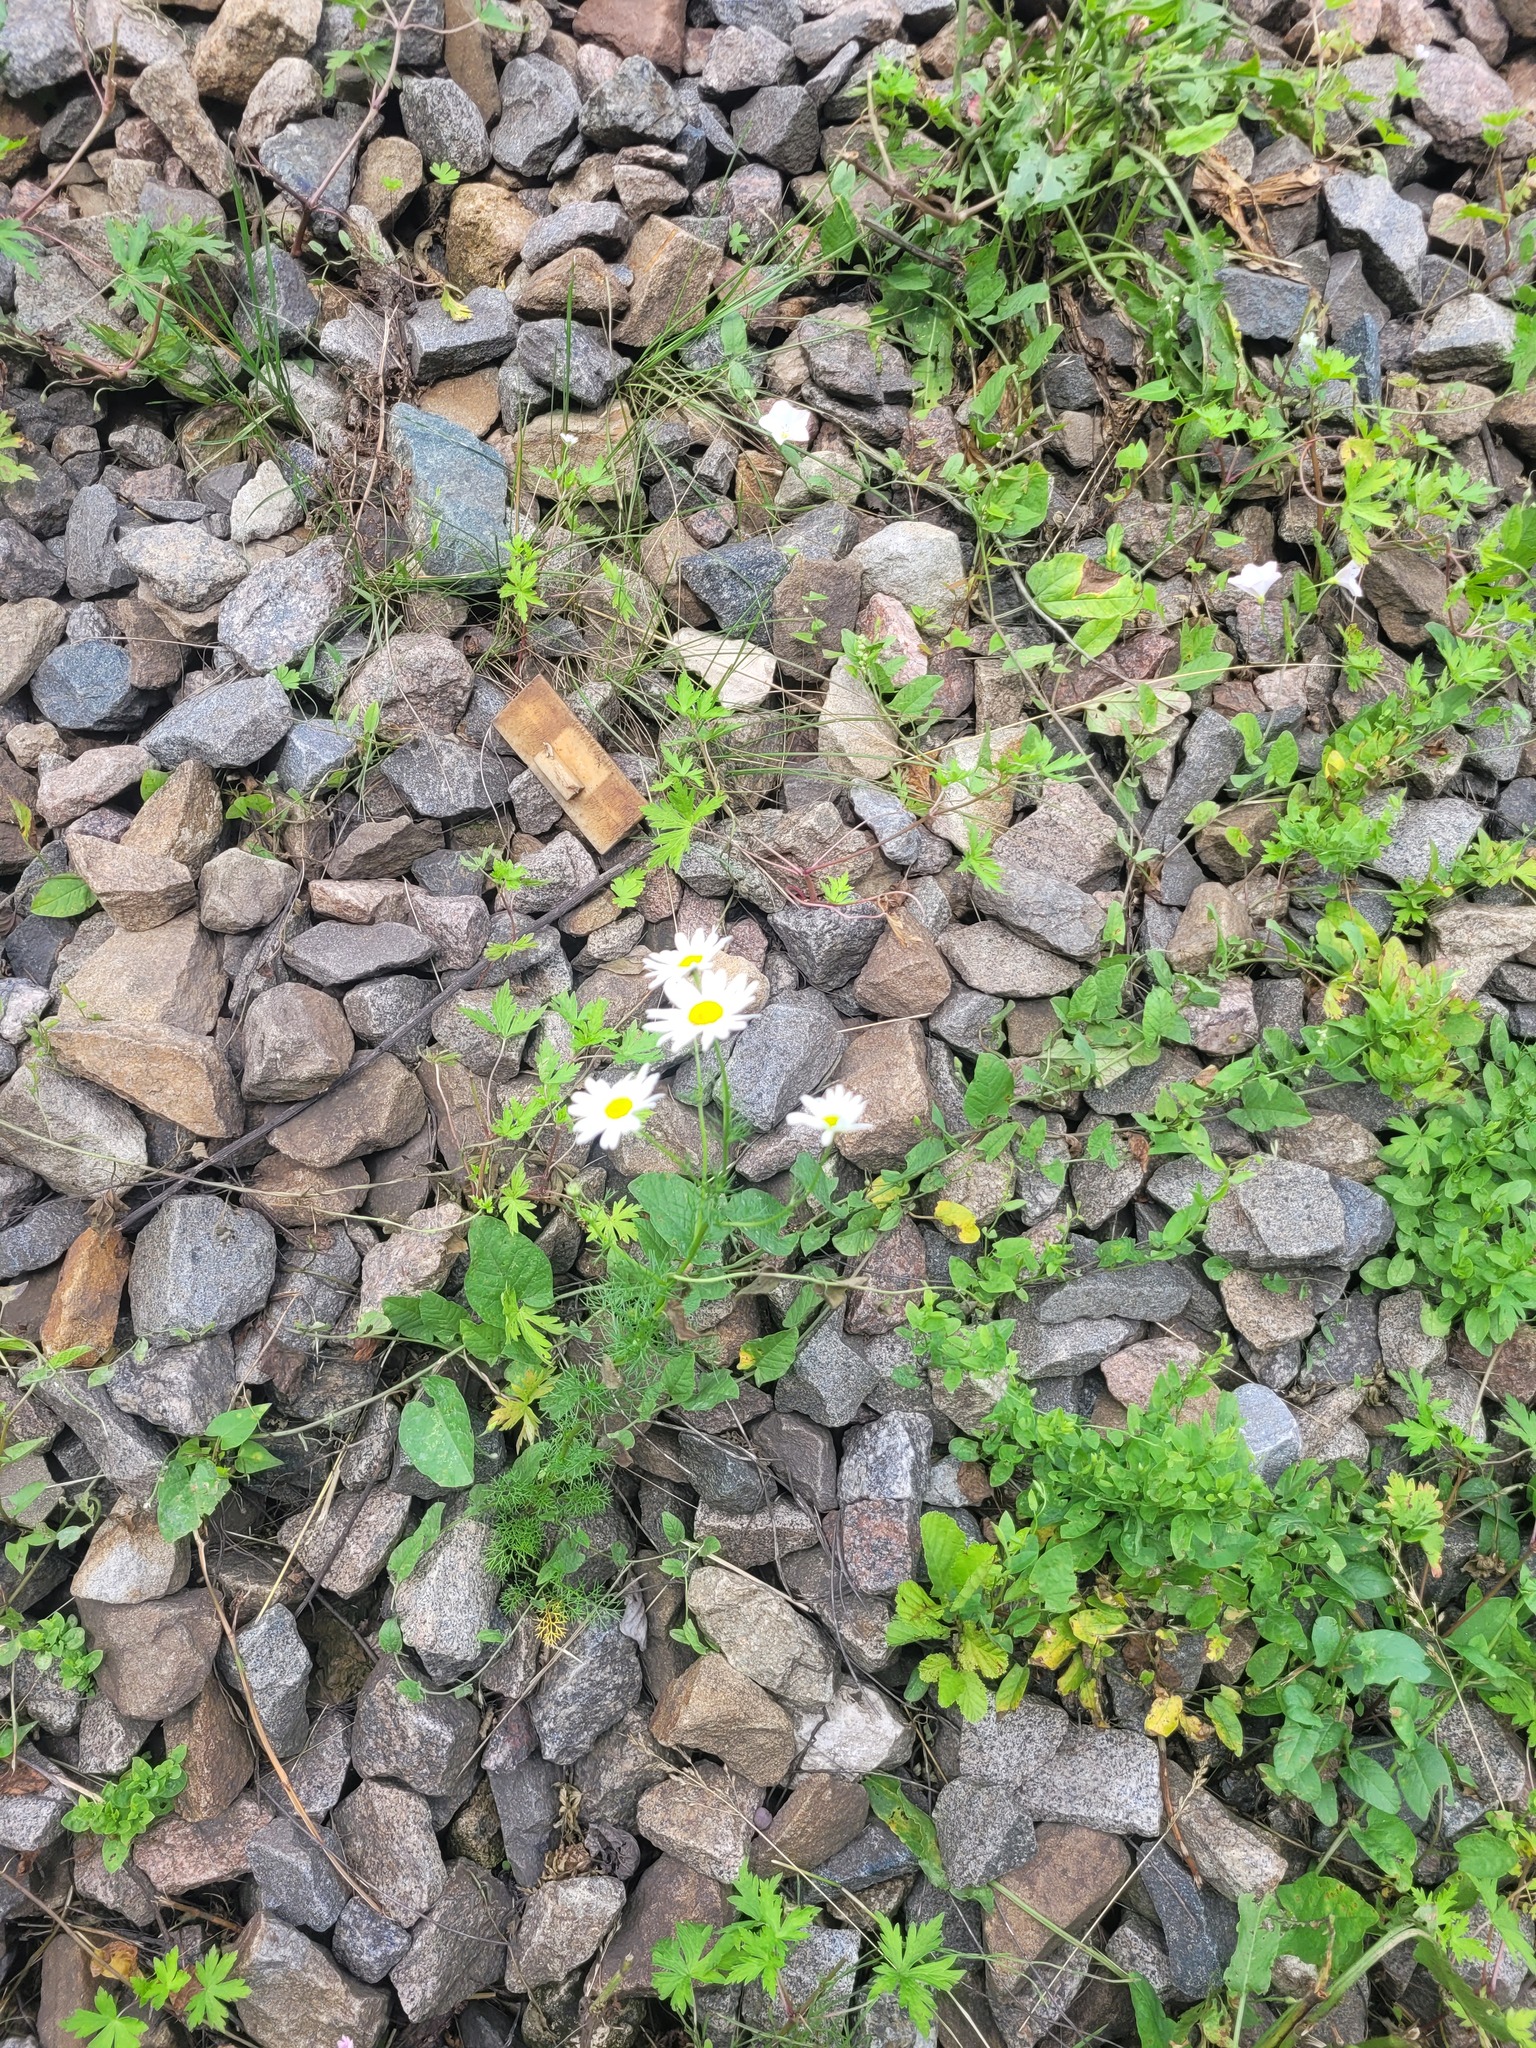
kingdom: Plantae
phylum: Tracheophyta
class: Magnoliopsida
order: Asterales
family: Asteraceae
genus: Tripleurospermum
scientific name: Tripleurospermum inodorum
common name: Scentless mayweed
